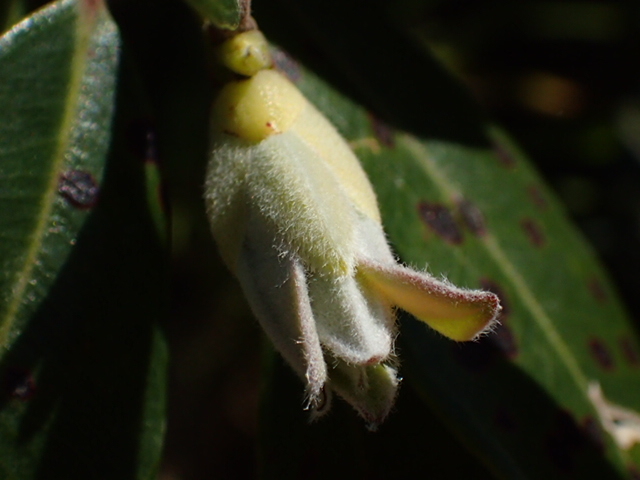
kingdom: Plantae
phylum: Tracheophyta
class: Magnoliopsida
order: Myrtales
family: Myrtaceae
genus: Metrosideros
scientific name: Metrosideros excelsa
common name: New zealand christmastree
